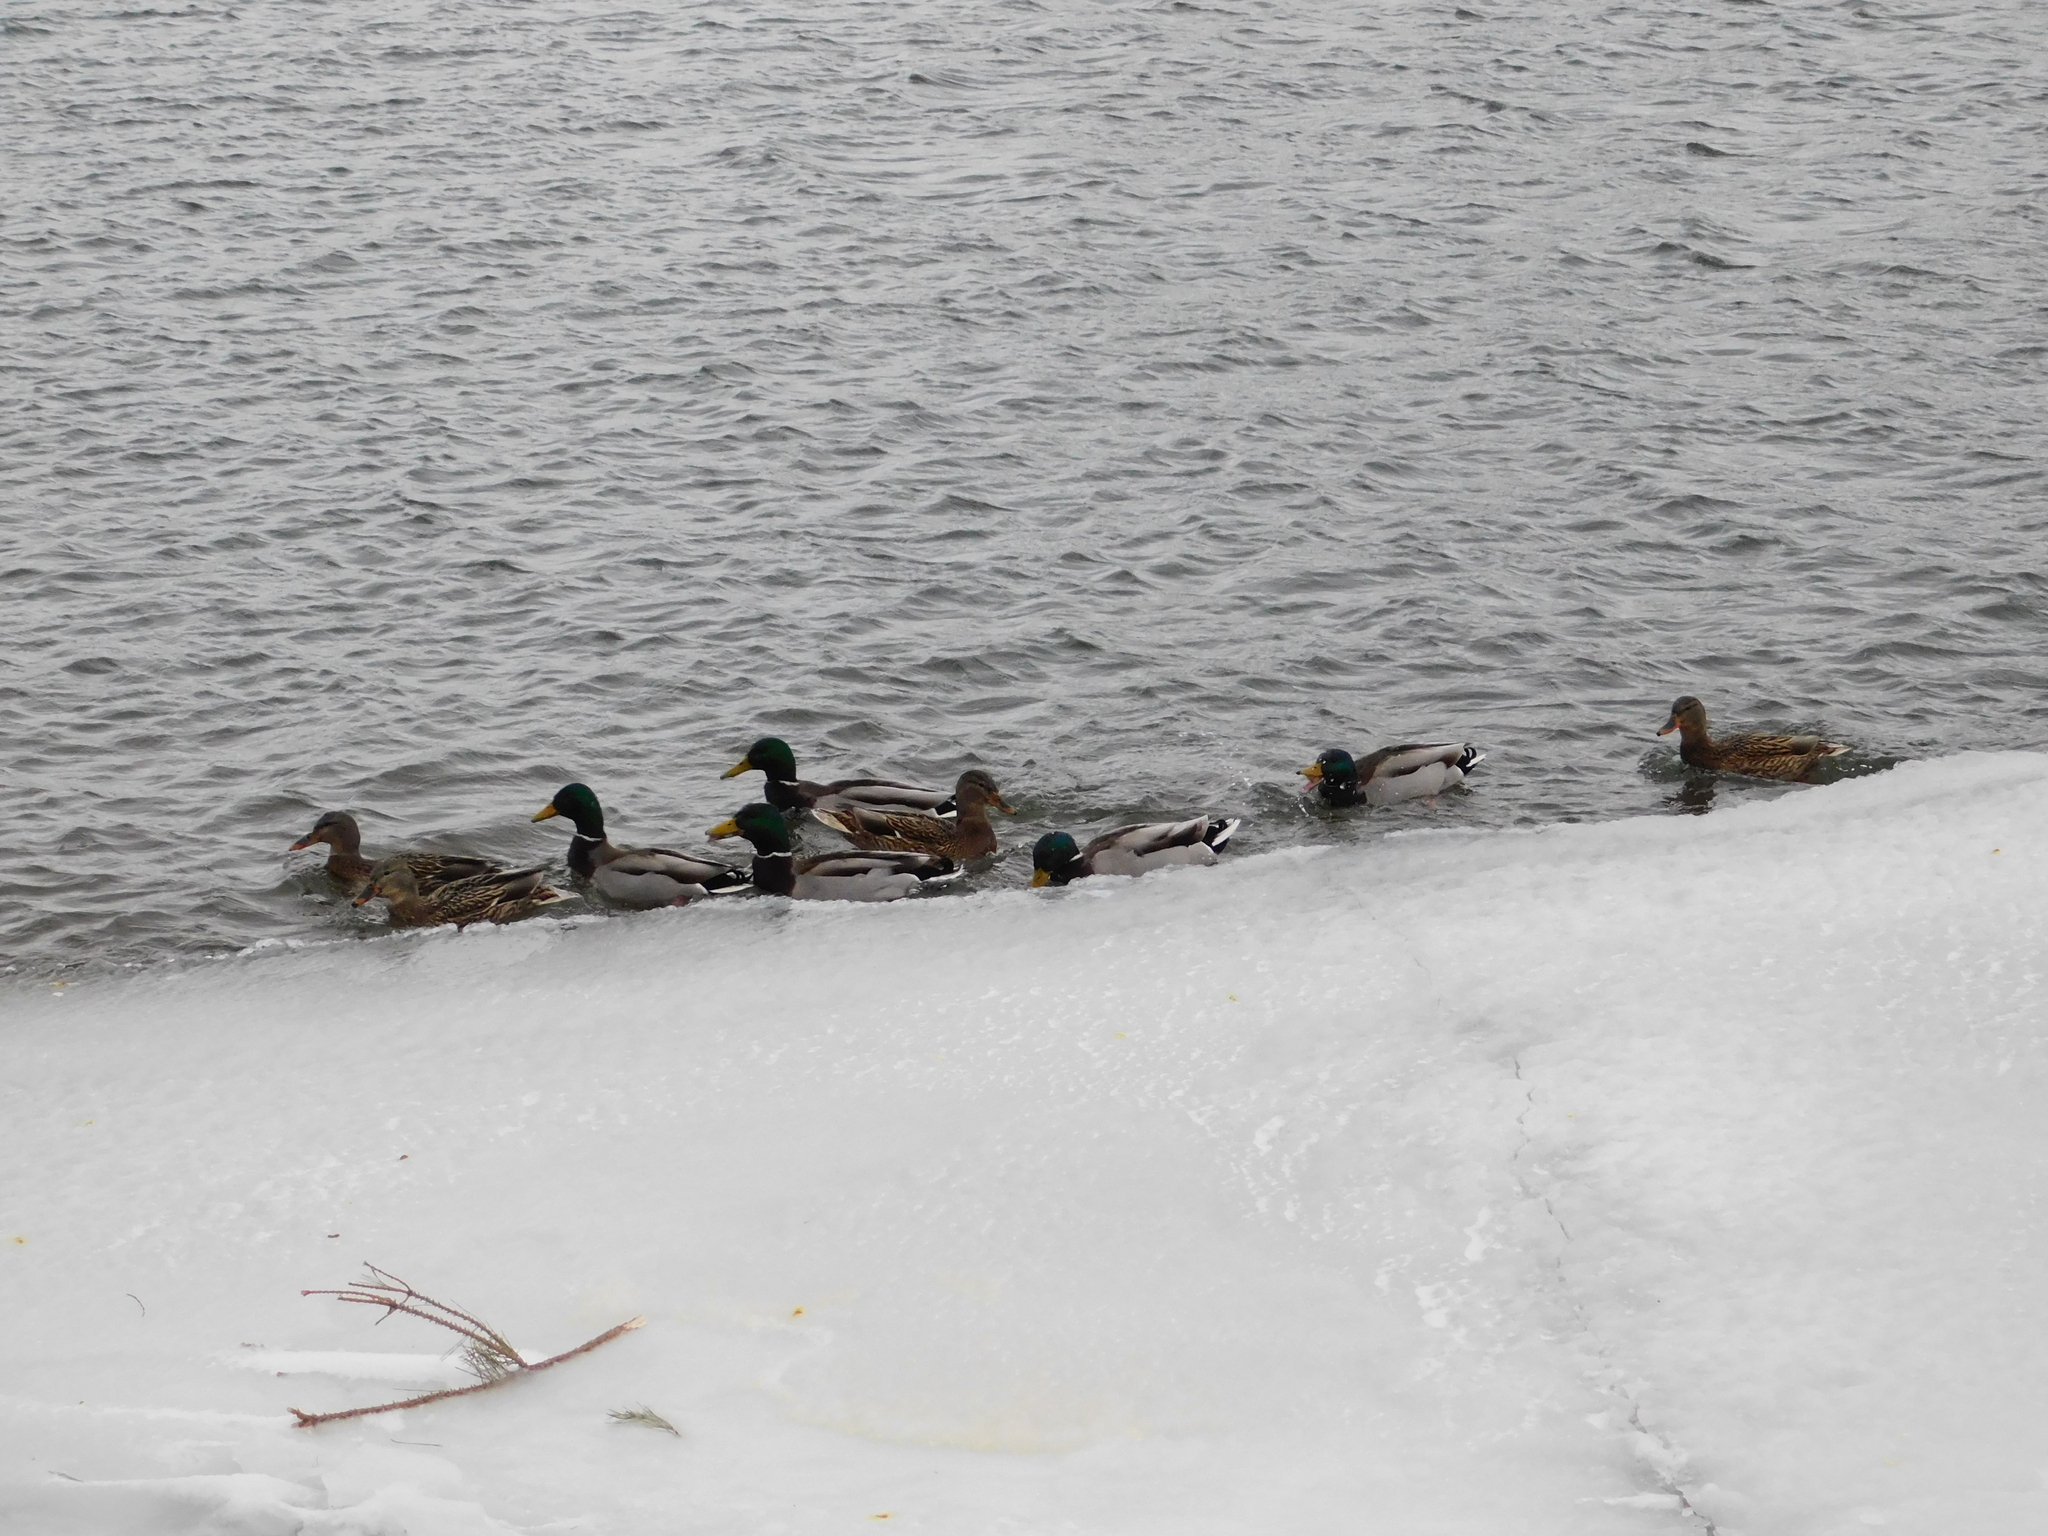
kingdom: Animalia
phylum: Chordata
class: Aves
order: Anseriformes
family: Anatidae
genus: Anas
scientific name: Anas platyrhynchos
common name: Mallard
